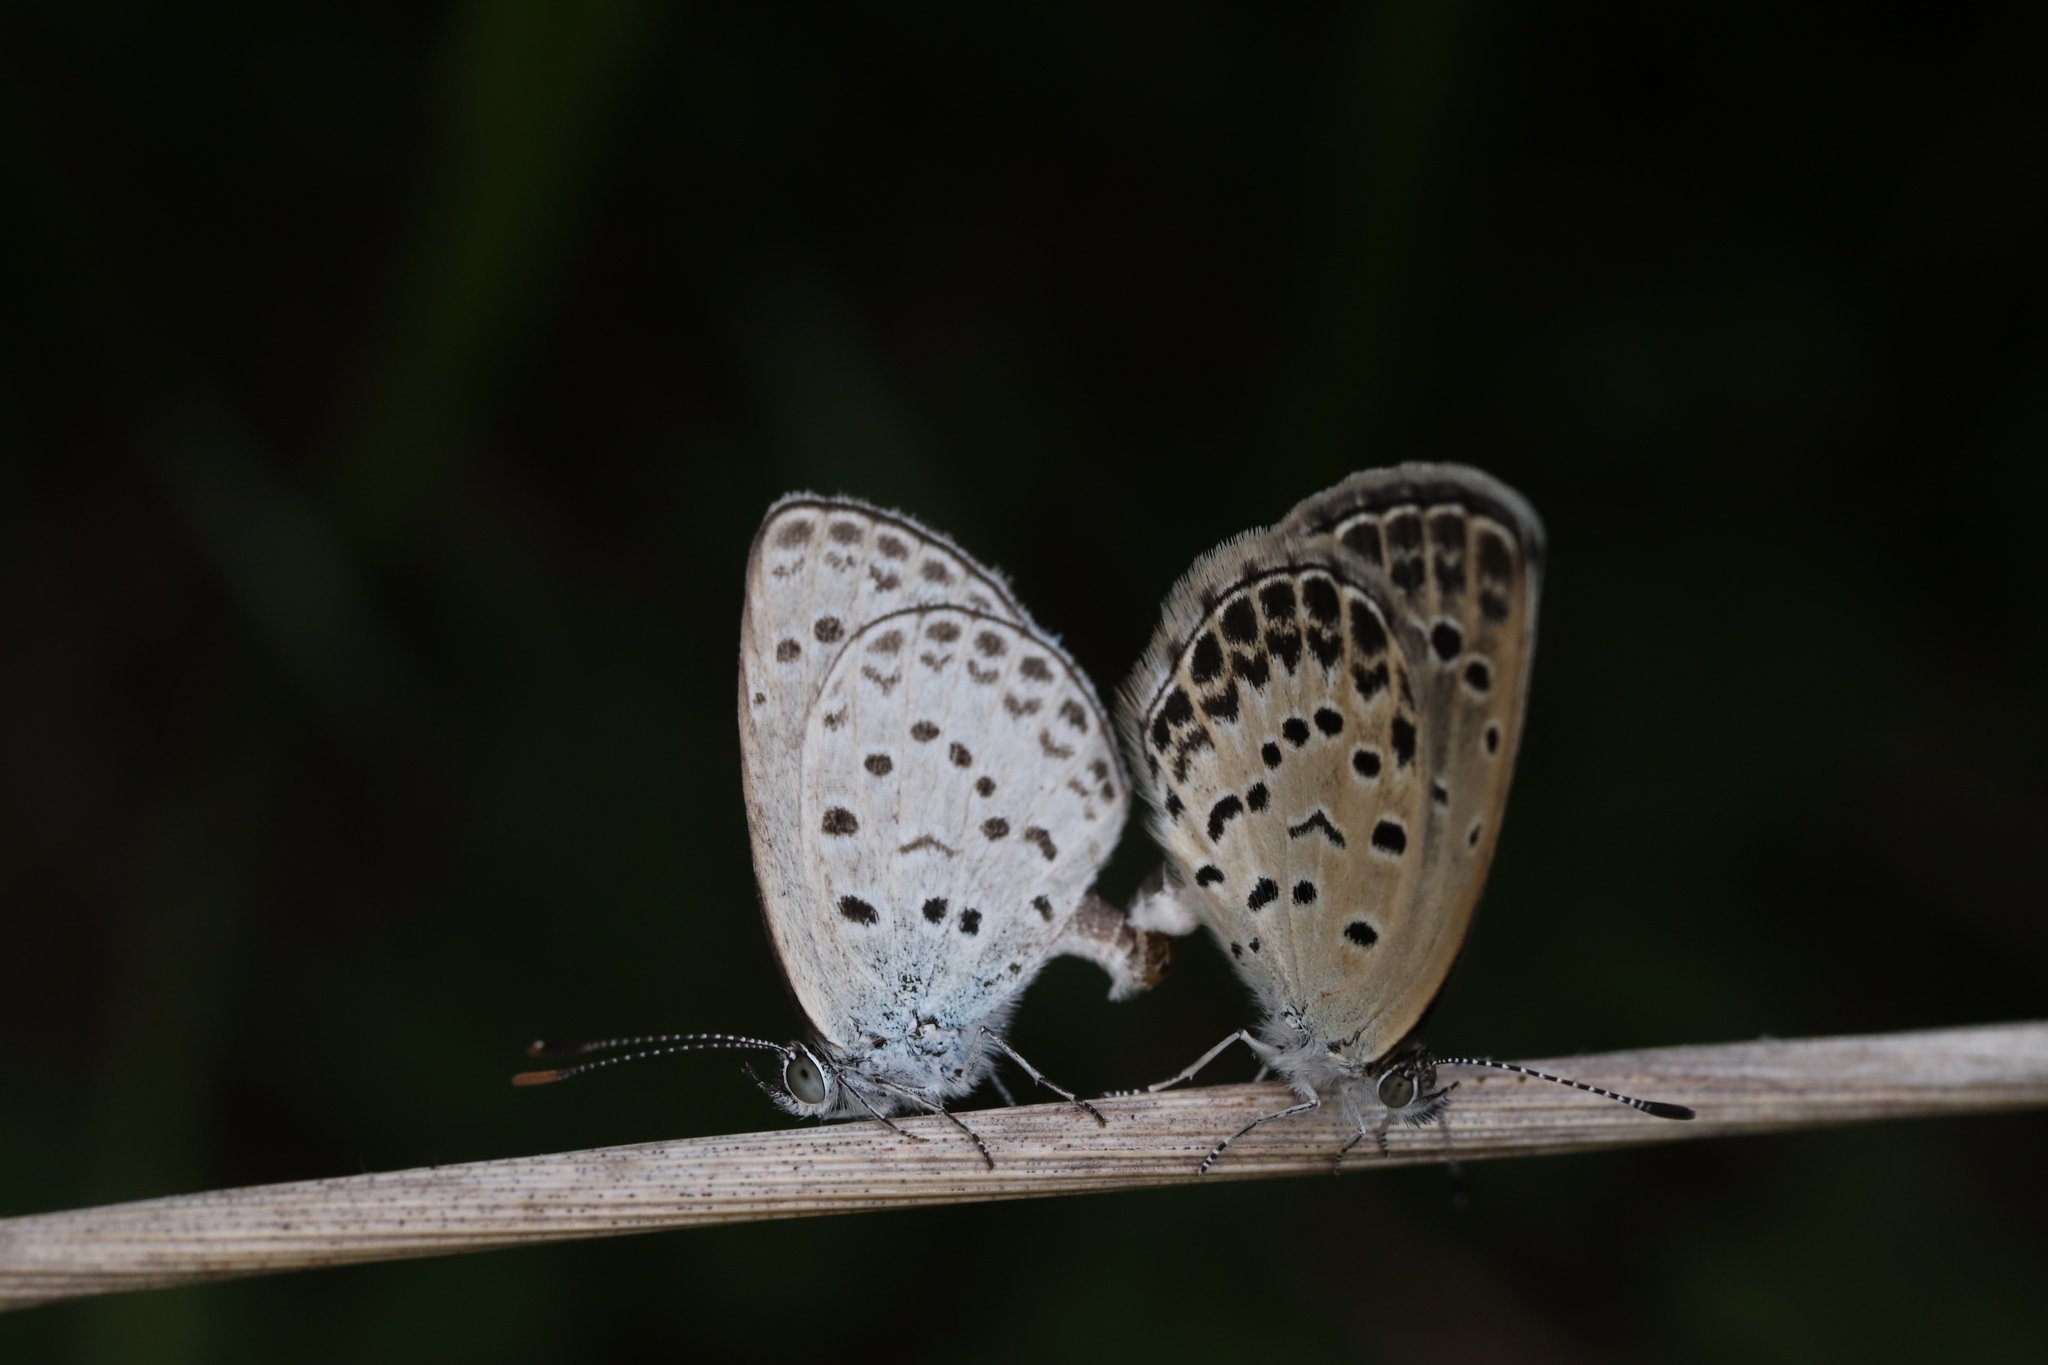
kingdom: Animalia
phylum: Arthropoda
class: Insecta
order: Lepidoptera
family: Lycaenidae
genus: Pseudozizeeria
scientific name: Pseudozizeeria maha
